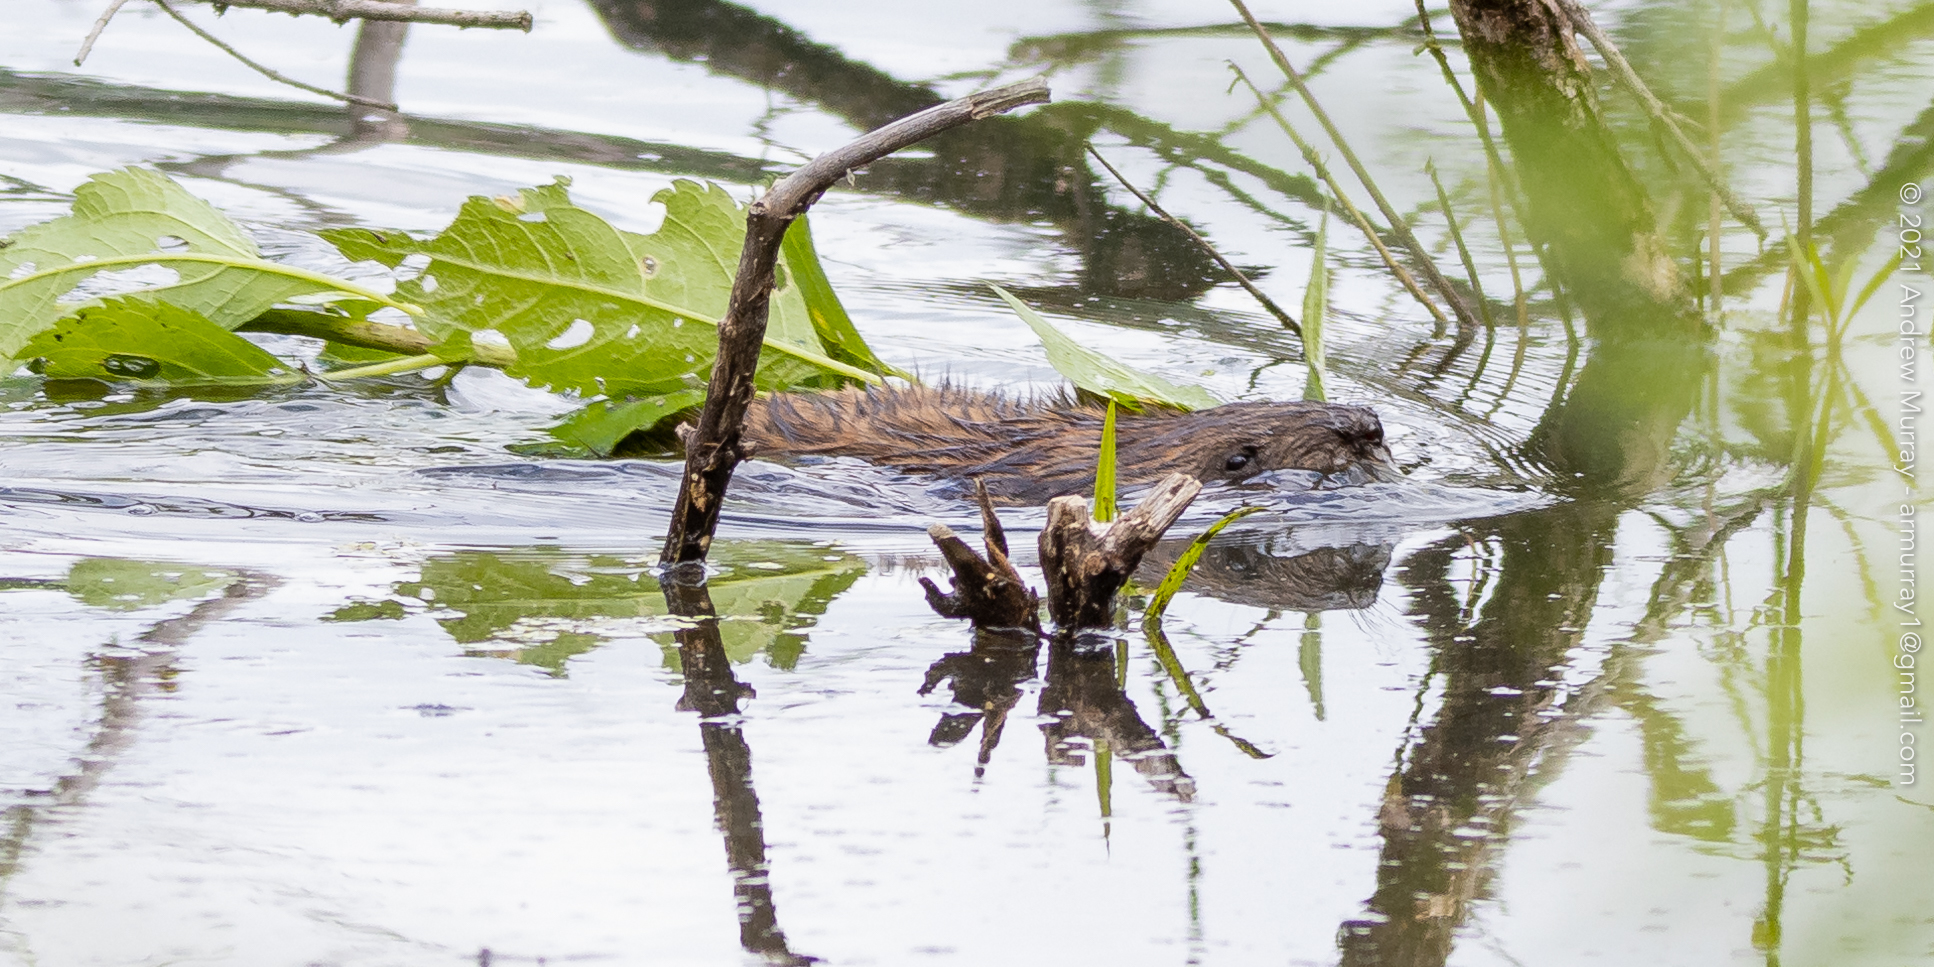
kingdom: Animalia
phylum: Chordata
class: Mammalia
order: Rodentia
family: Cricetidae
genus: Ondatra
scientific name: Ondatra zibethicus
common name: Muskrat
